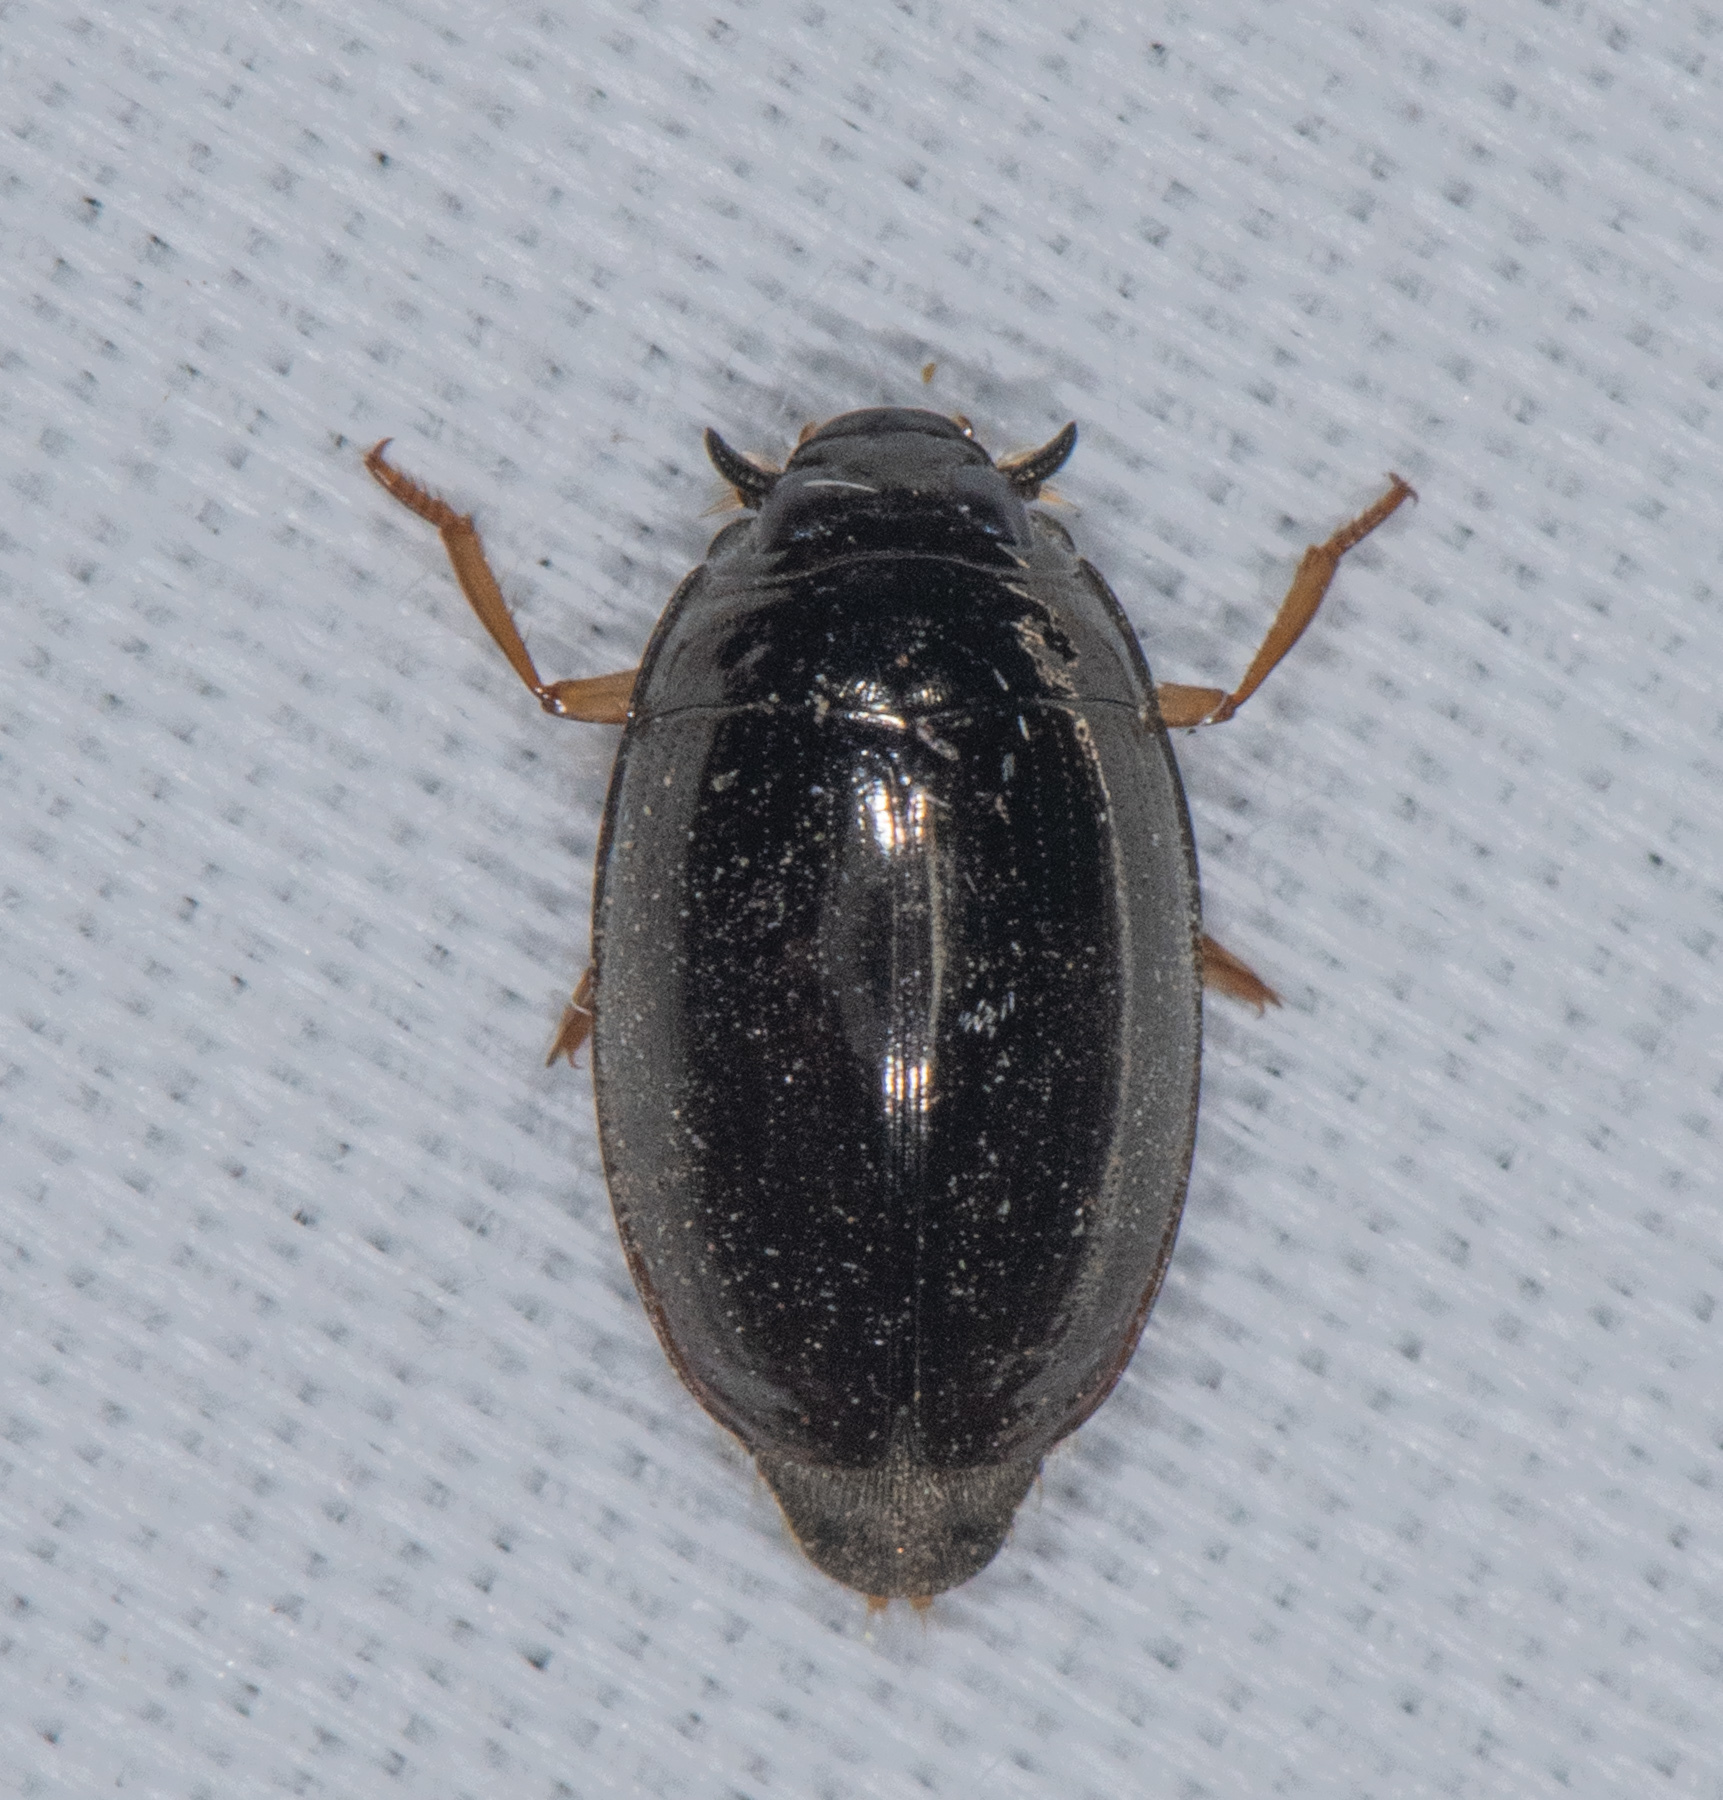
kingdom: Animalia
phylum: Arthropoda
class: Insecta
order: Coleoptera
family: Gyrinidae
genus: Gyrinus
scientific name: Gyrinus
